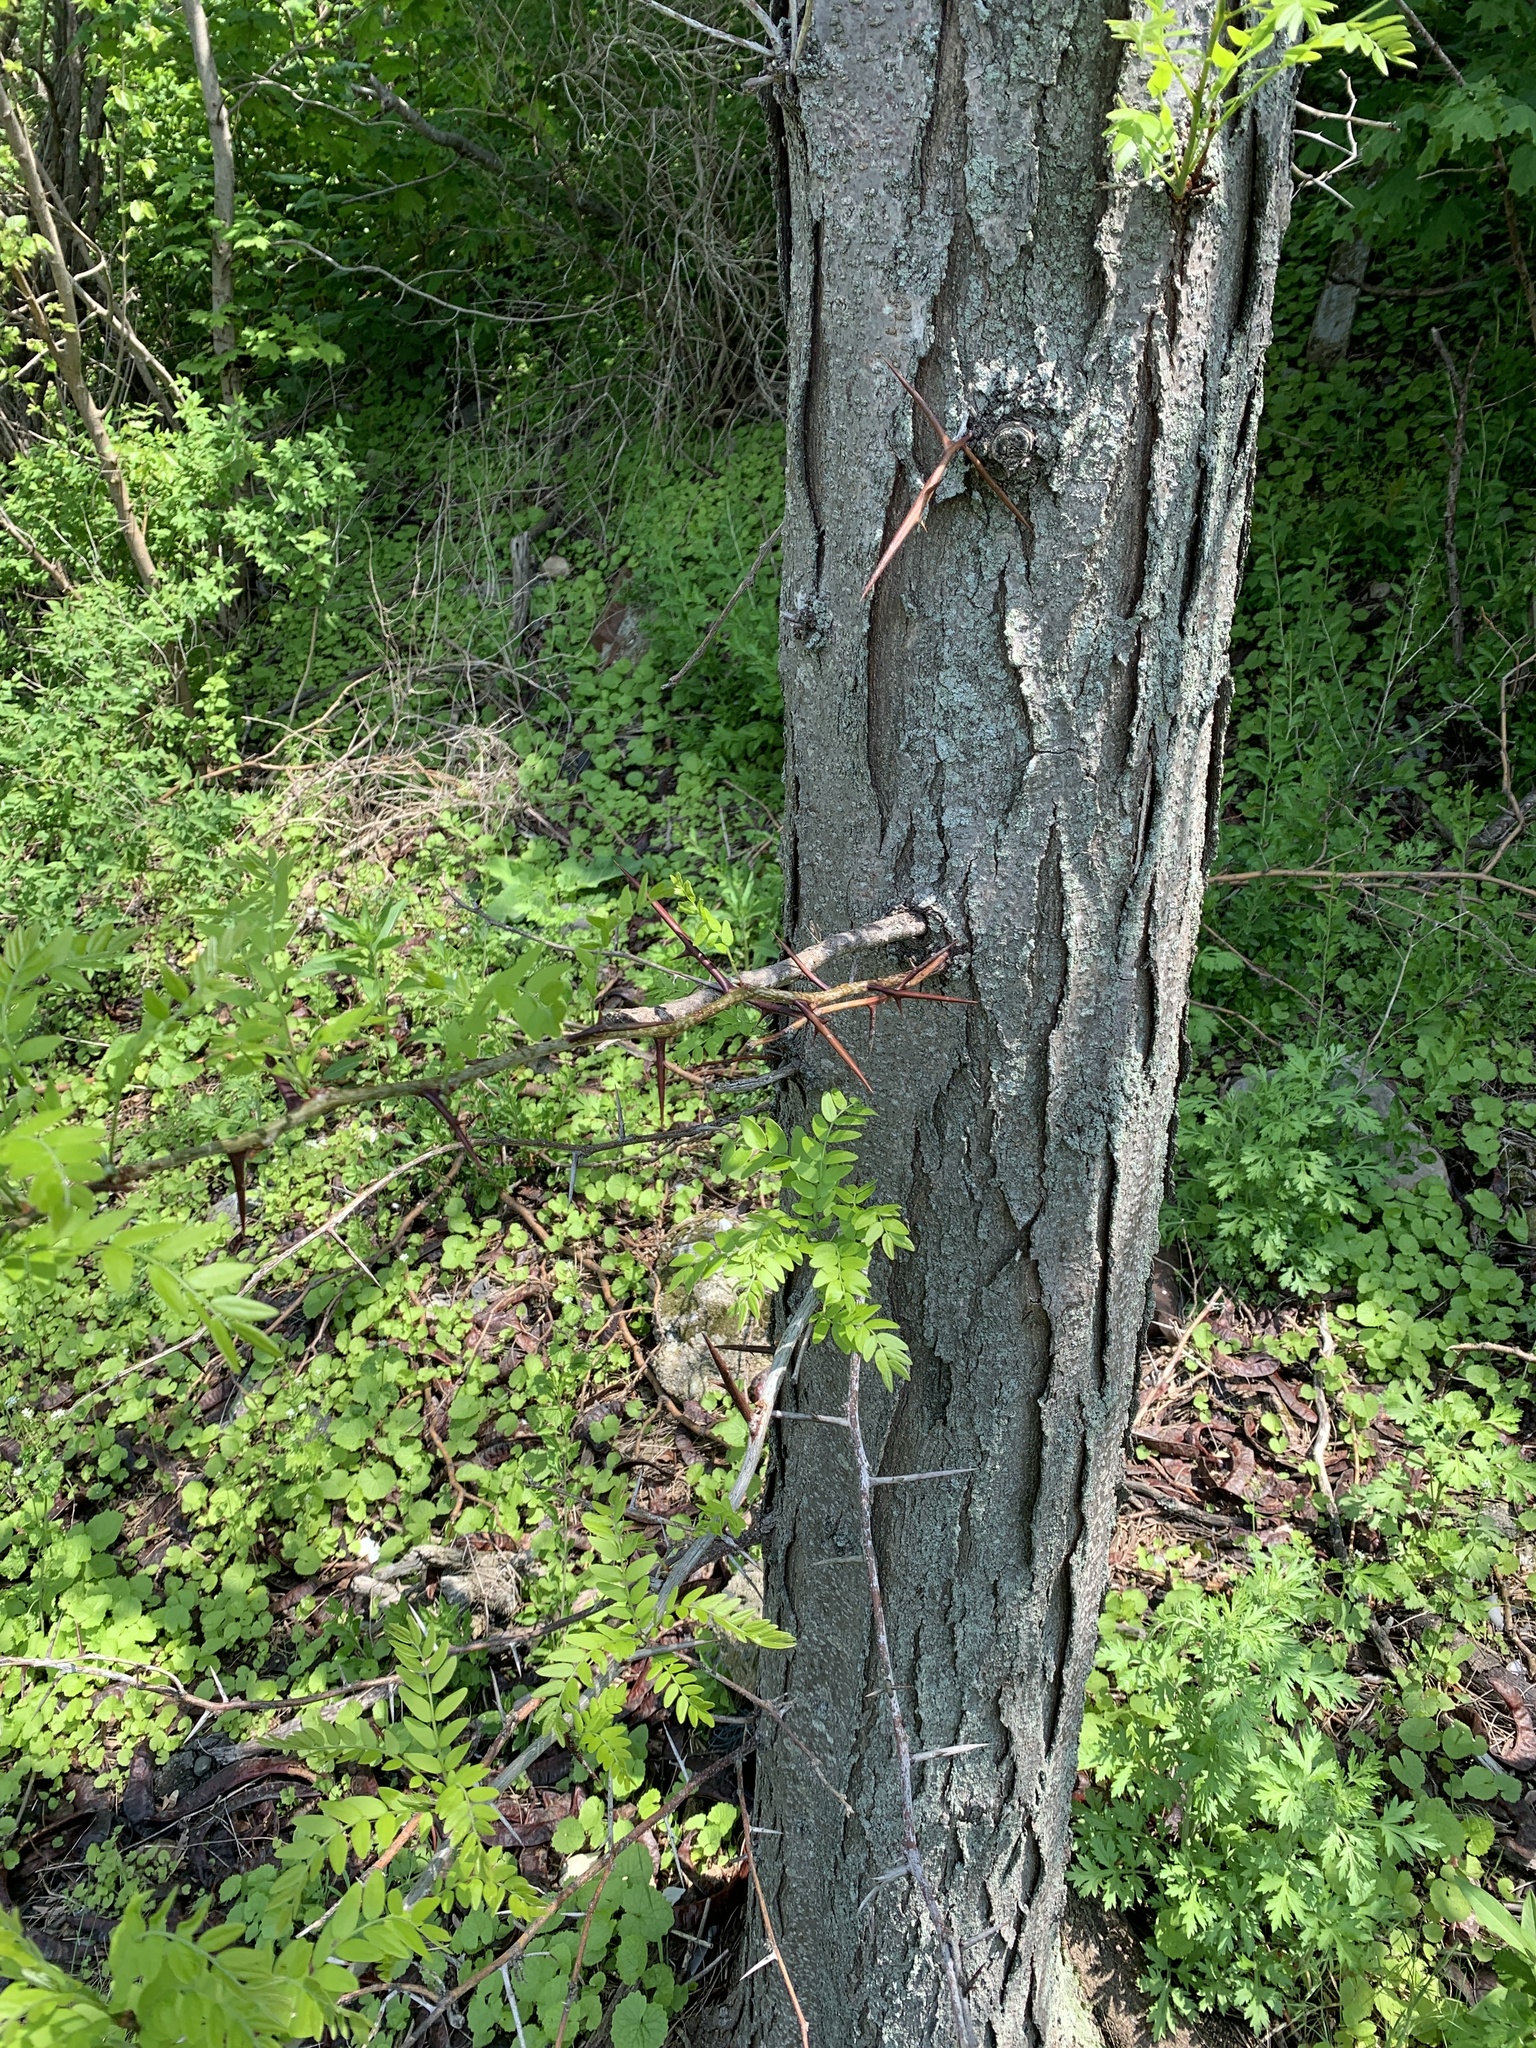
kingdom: Plantae
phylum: Tracheophyta
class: Magnoliopsida
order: Fabales
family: Fabaceae
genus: Gleditsia
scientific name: Gleditsia triacanthos
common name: Common honeylocust
